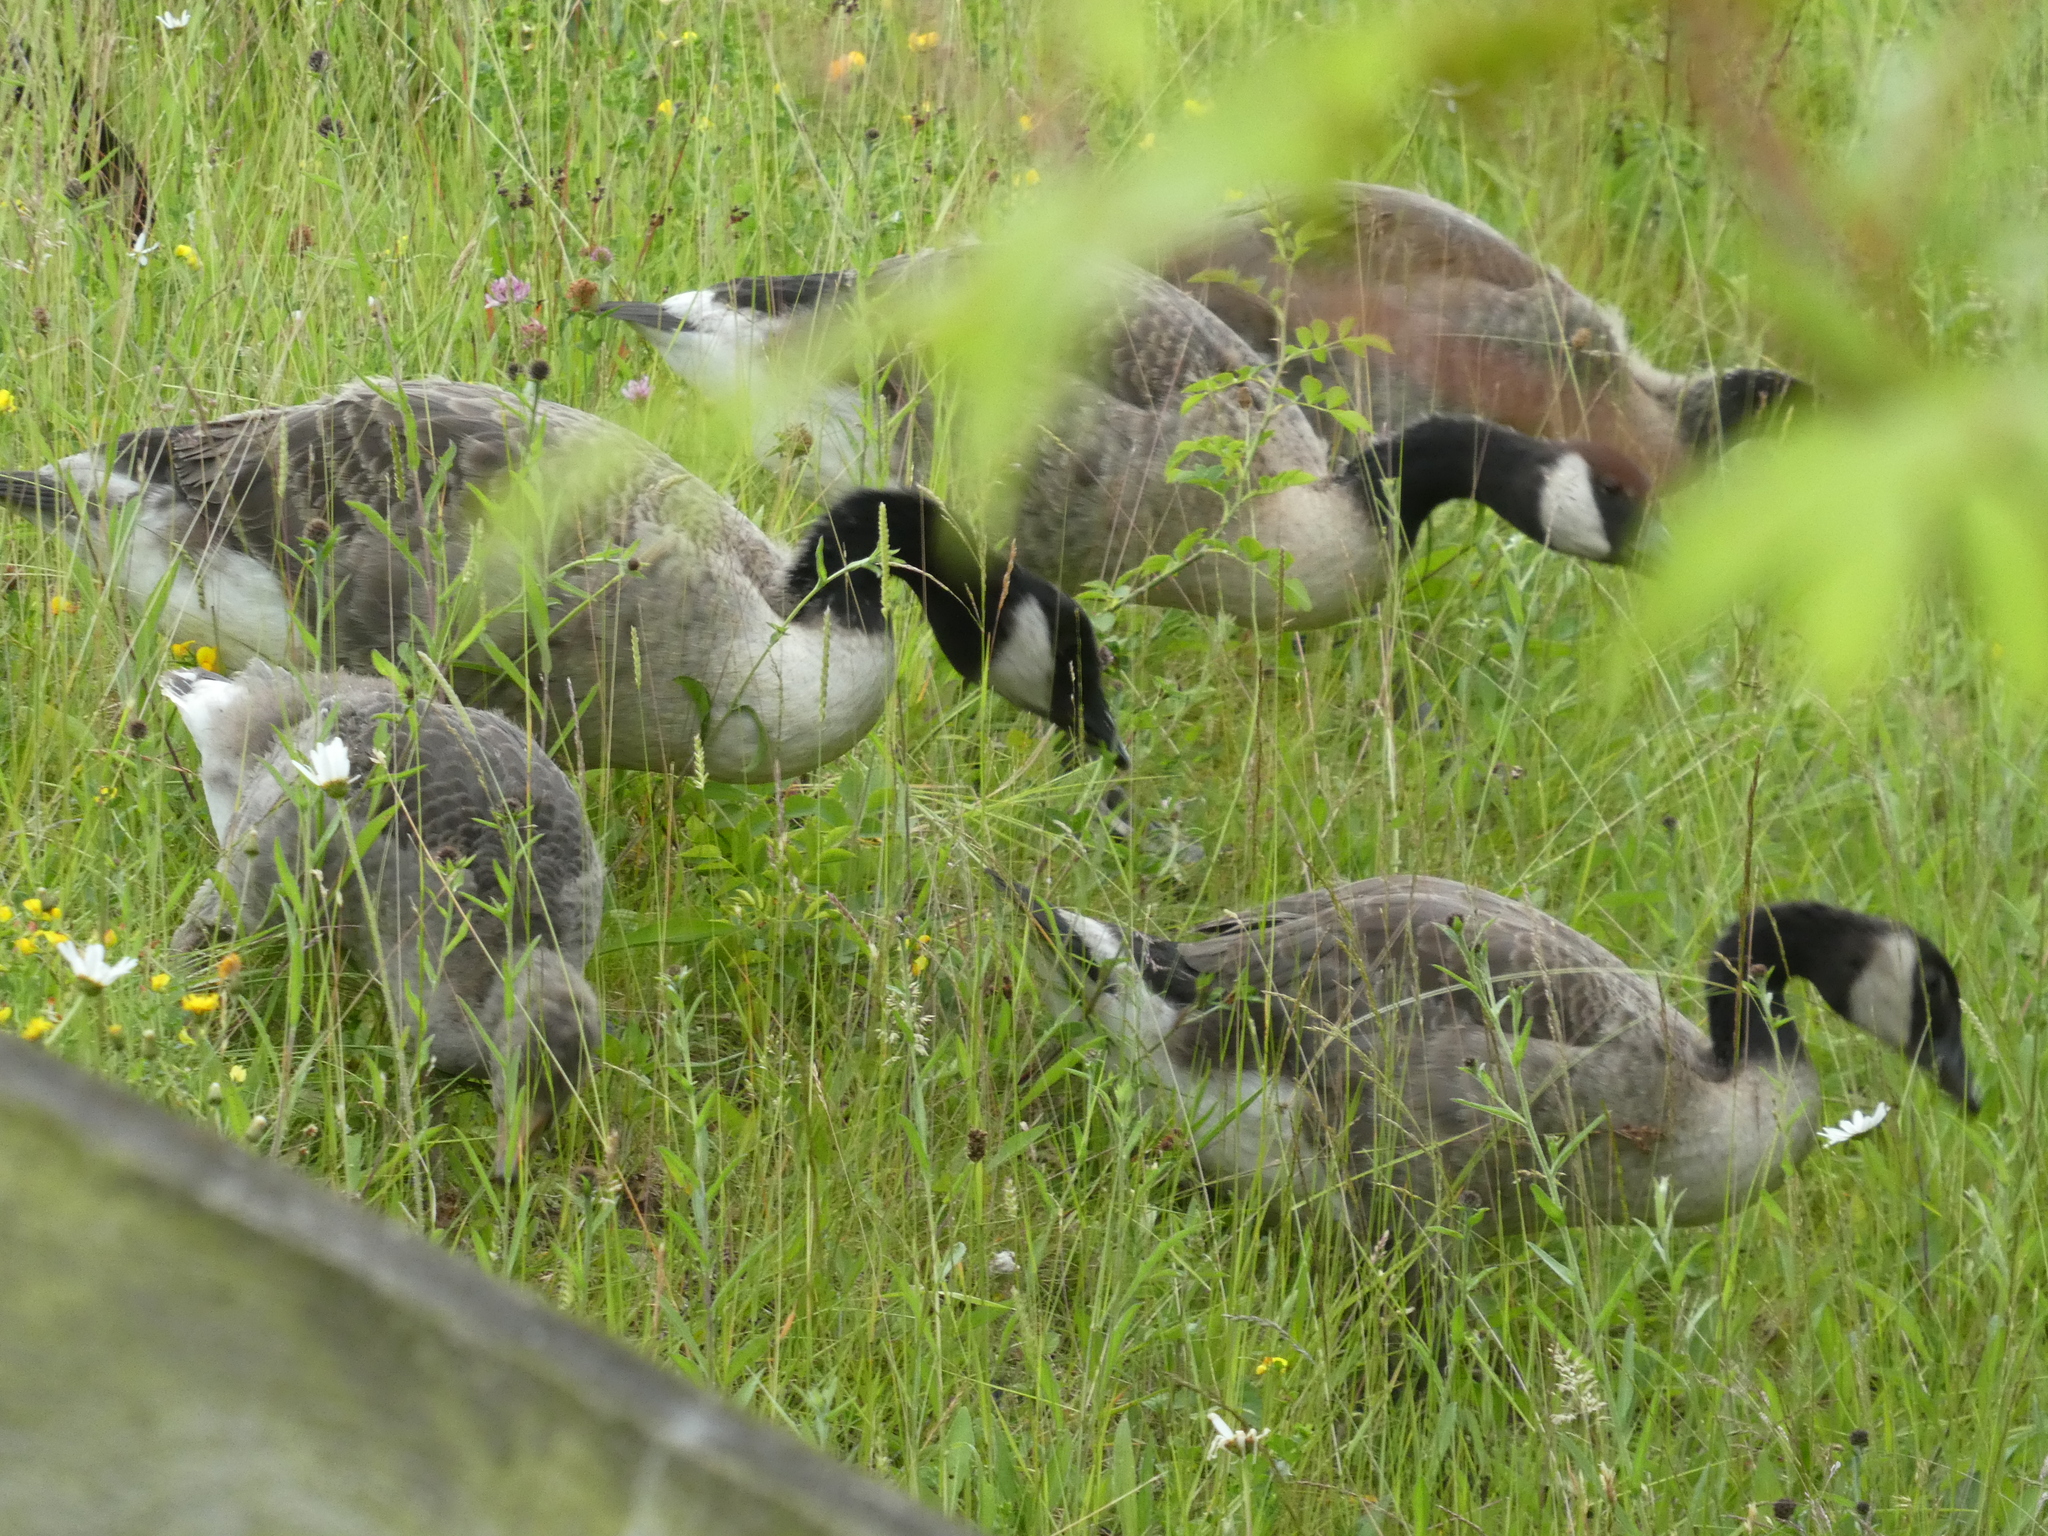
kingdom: Animalia
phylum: Chordata
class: Aves
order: Anseriformes
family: Anatidae
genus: Branta
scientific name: Branta canadensis
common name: Canada goose
